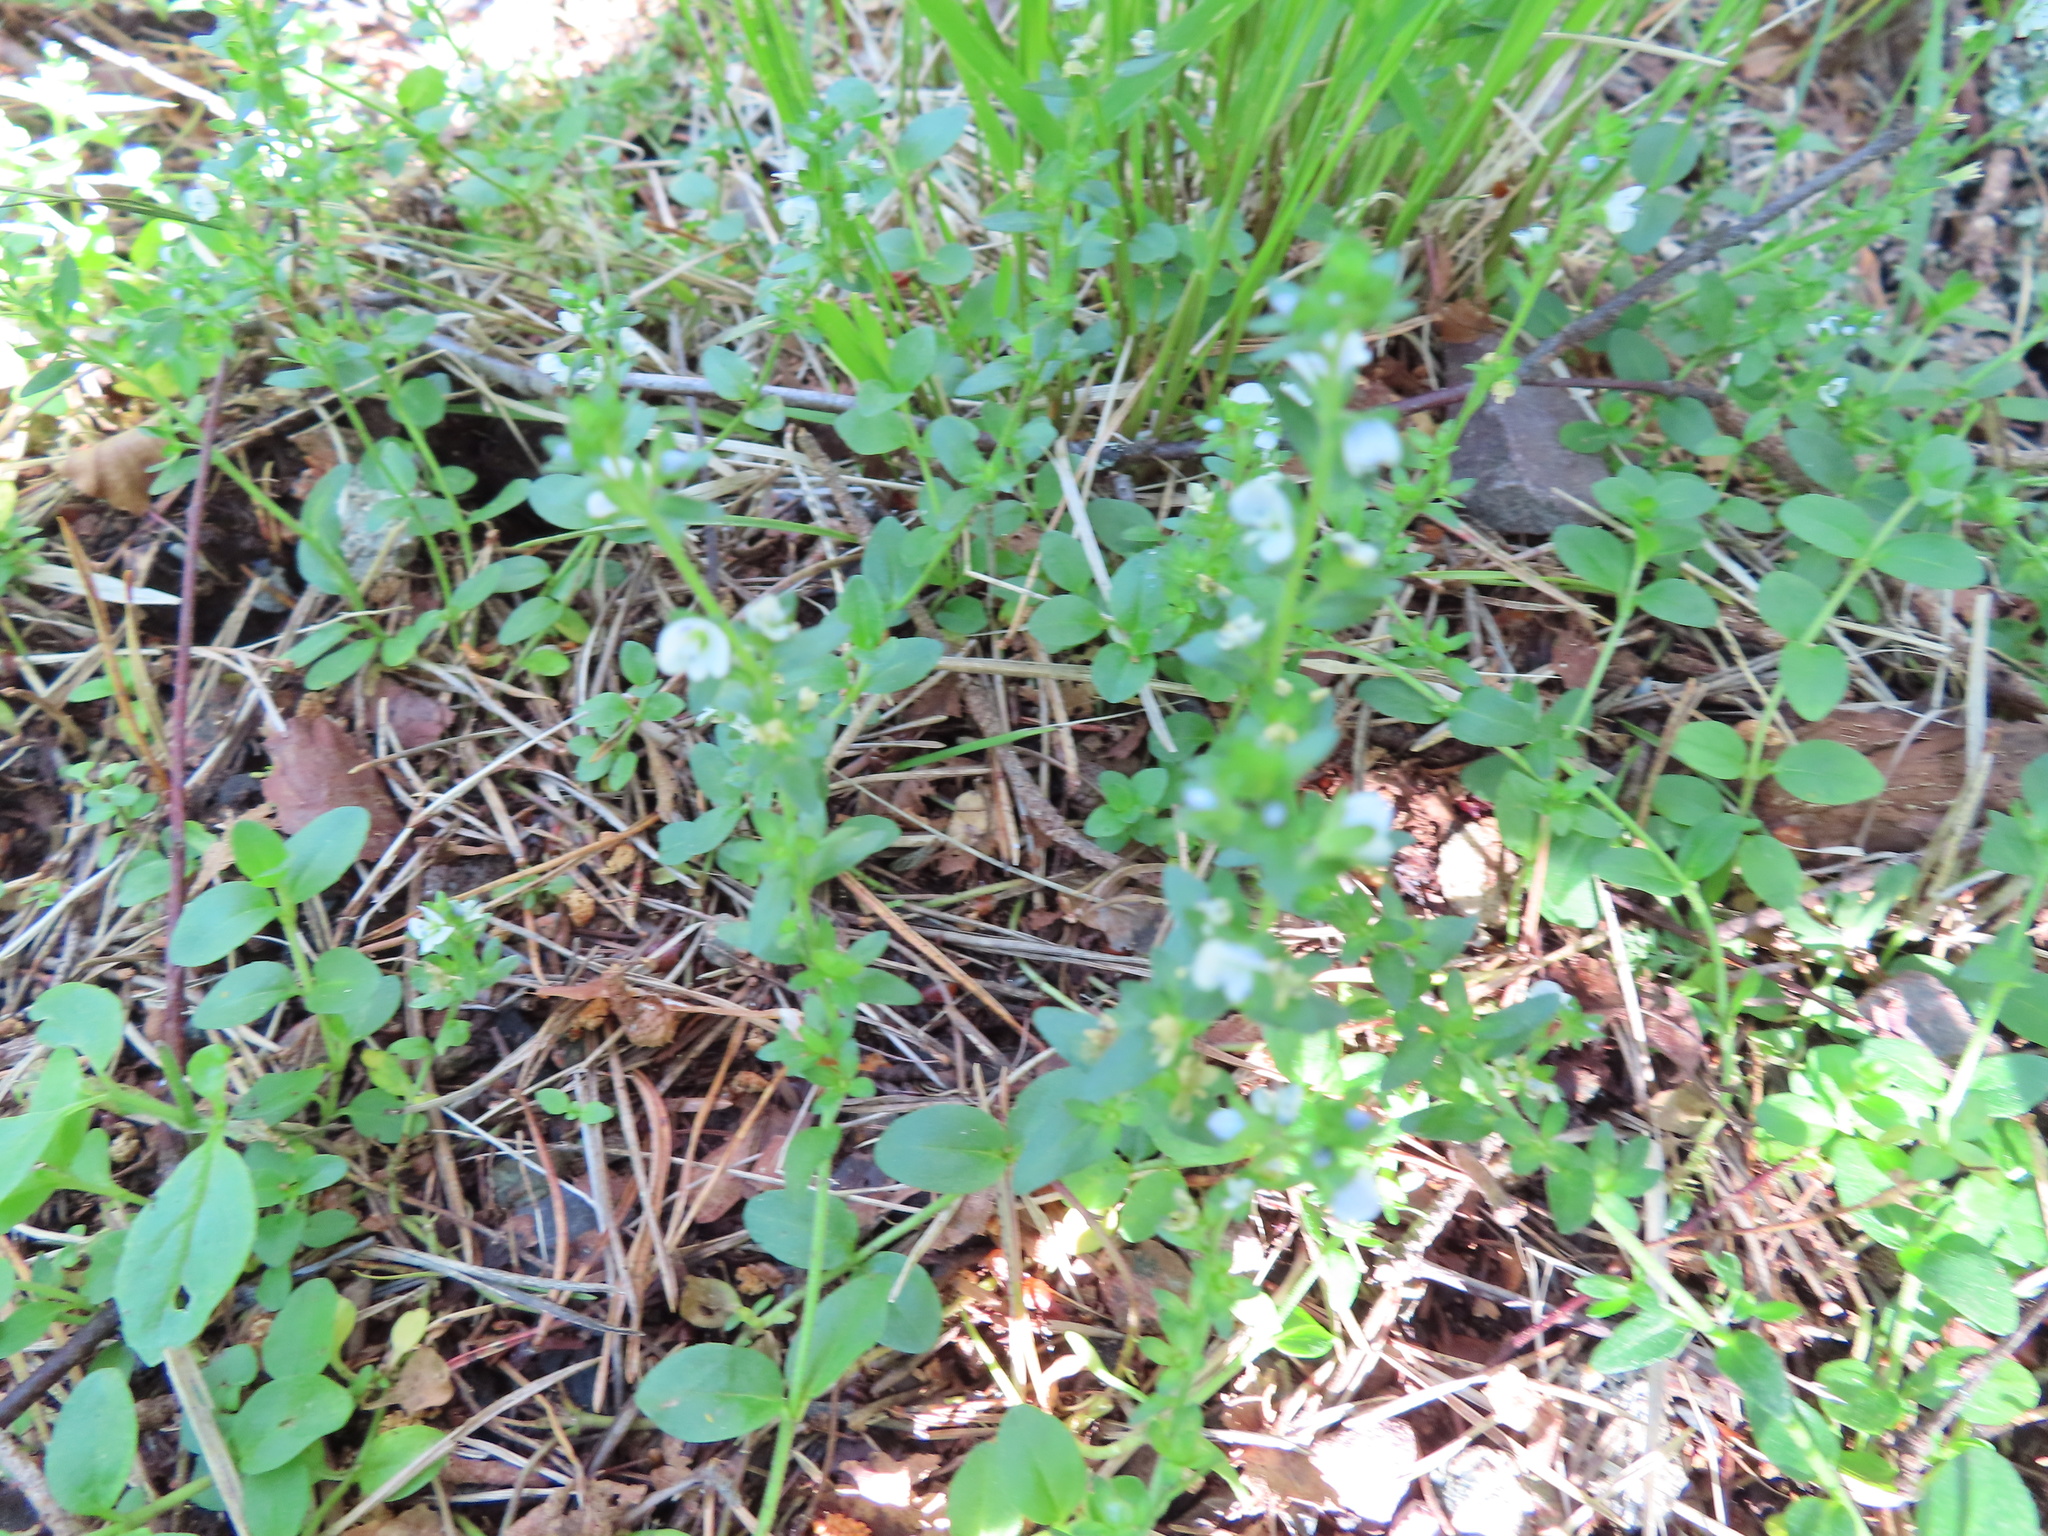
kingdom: Plantae
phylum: Tracheophyta
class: Magnoliopsida
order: Lamiales
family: Plantaginaceae
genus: Veronica
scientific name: Veronica serpyllifolia
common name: Thyme-leaved speedwell
